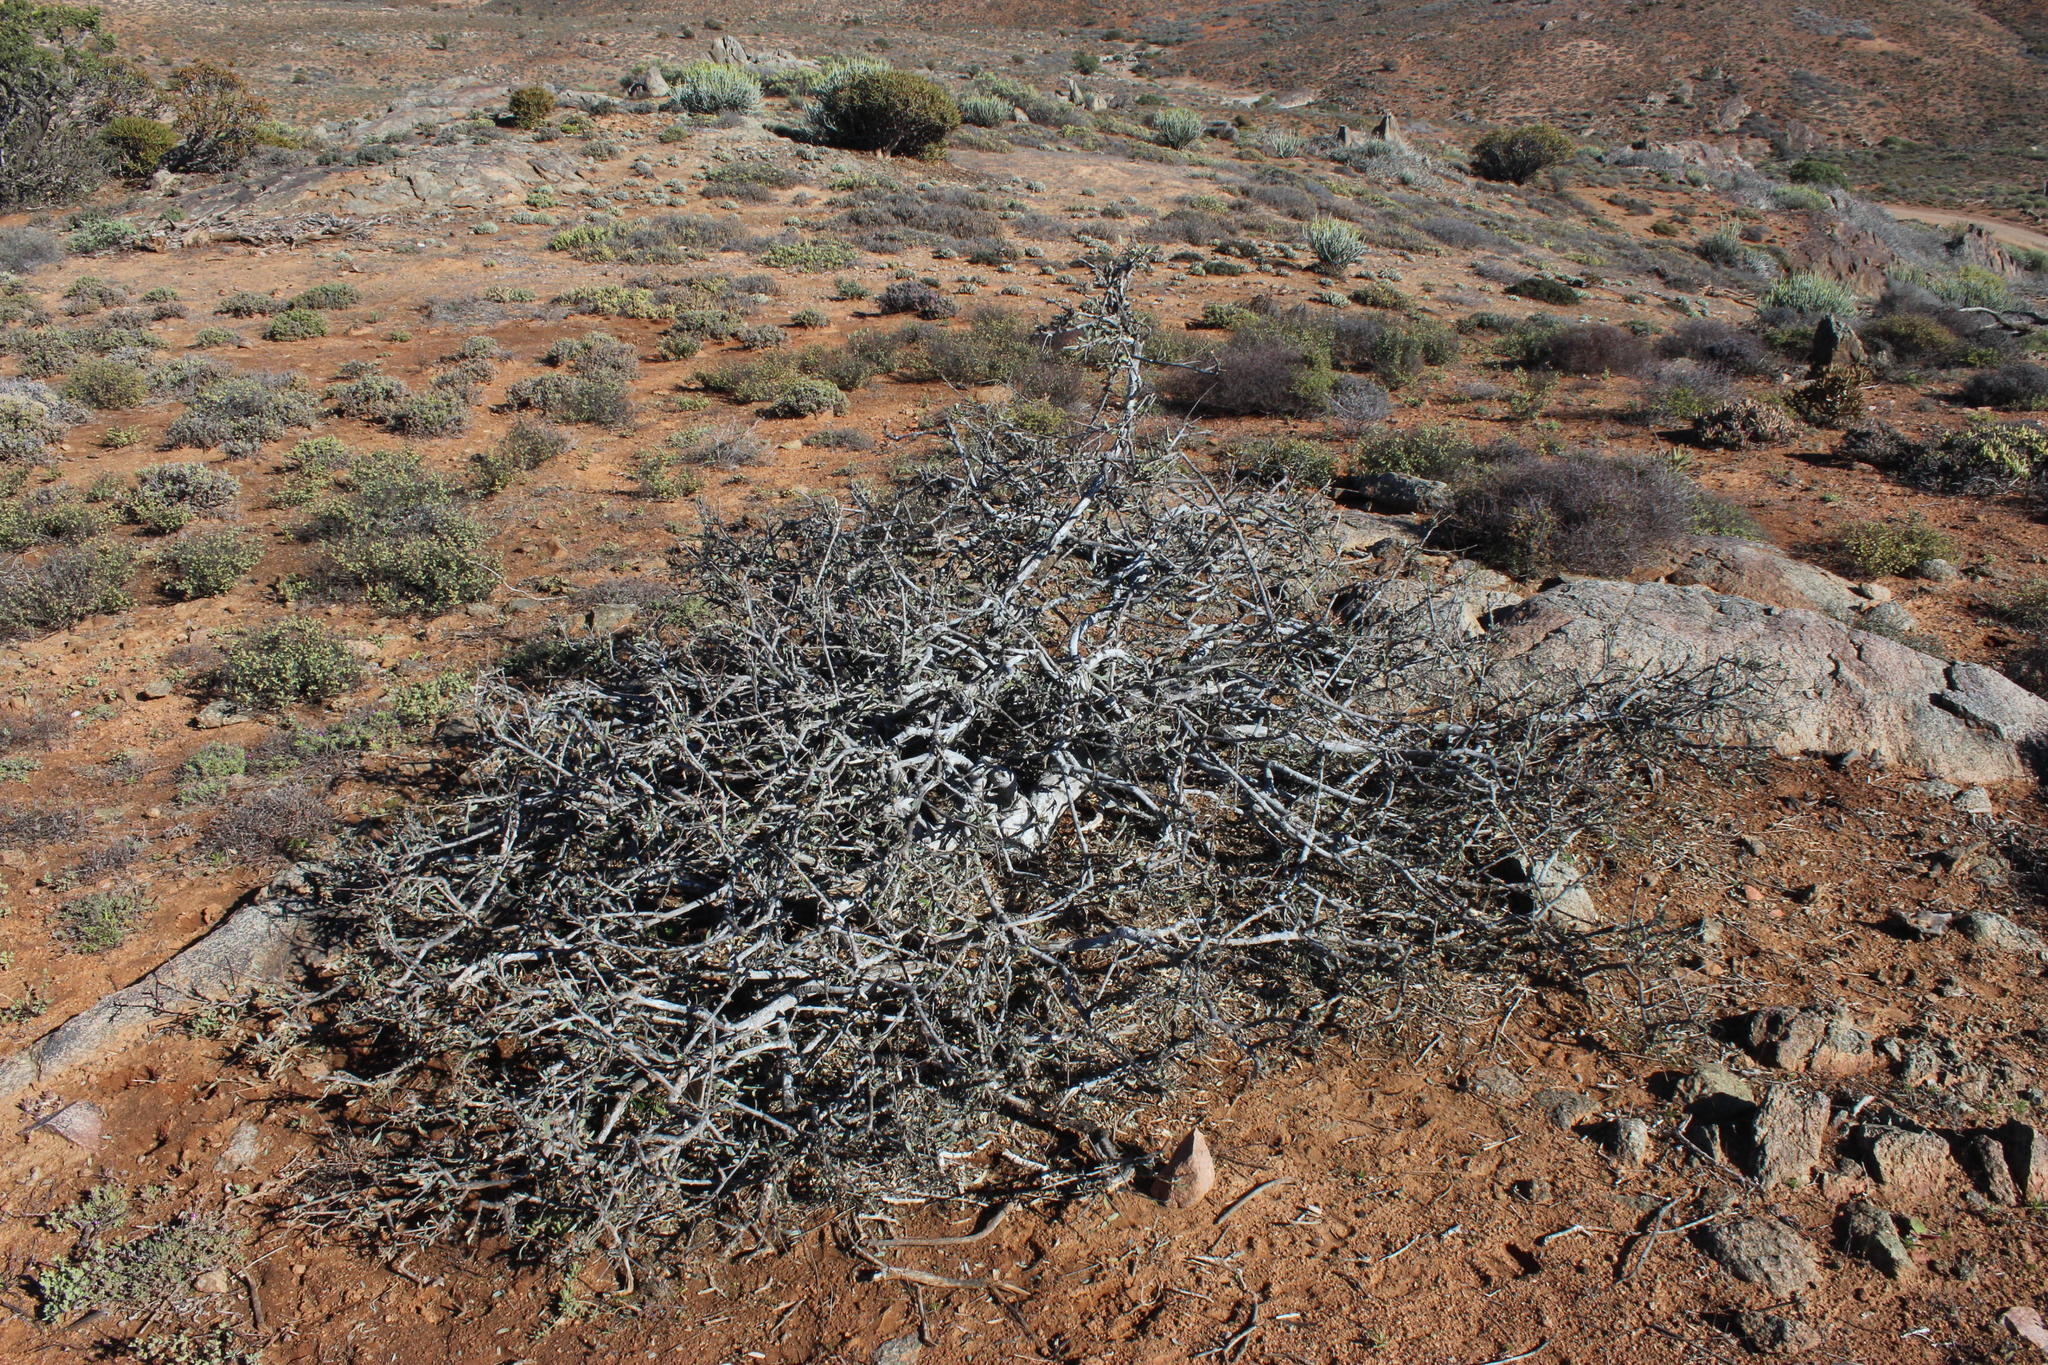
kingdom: Plantae
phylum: Tracheophyta
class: Magnoliopsida
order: Brassicales
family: Capparaceae
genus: Boscia
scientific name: Boscia albitrunca
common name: Caper bush
